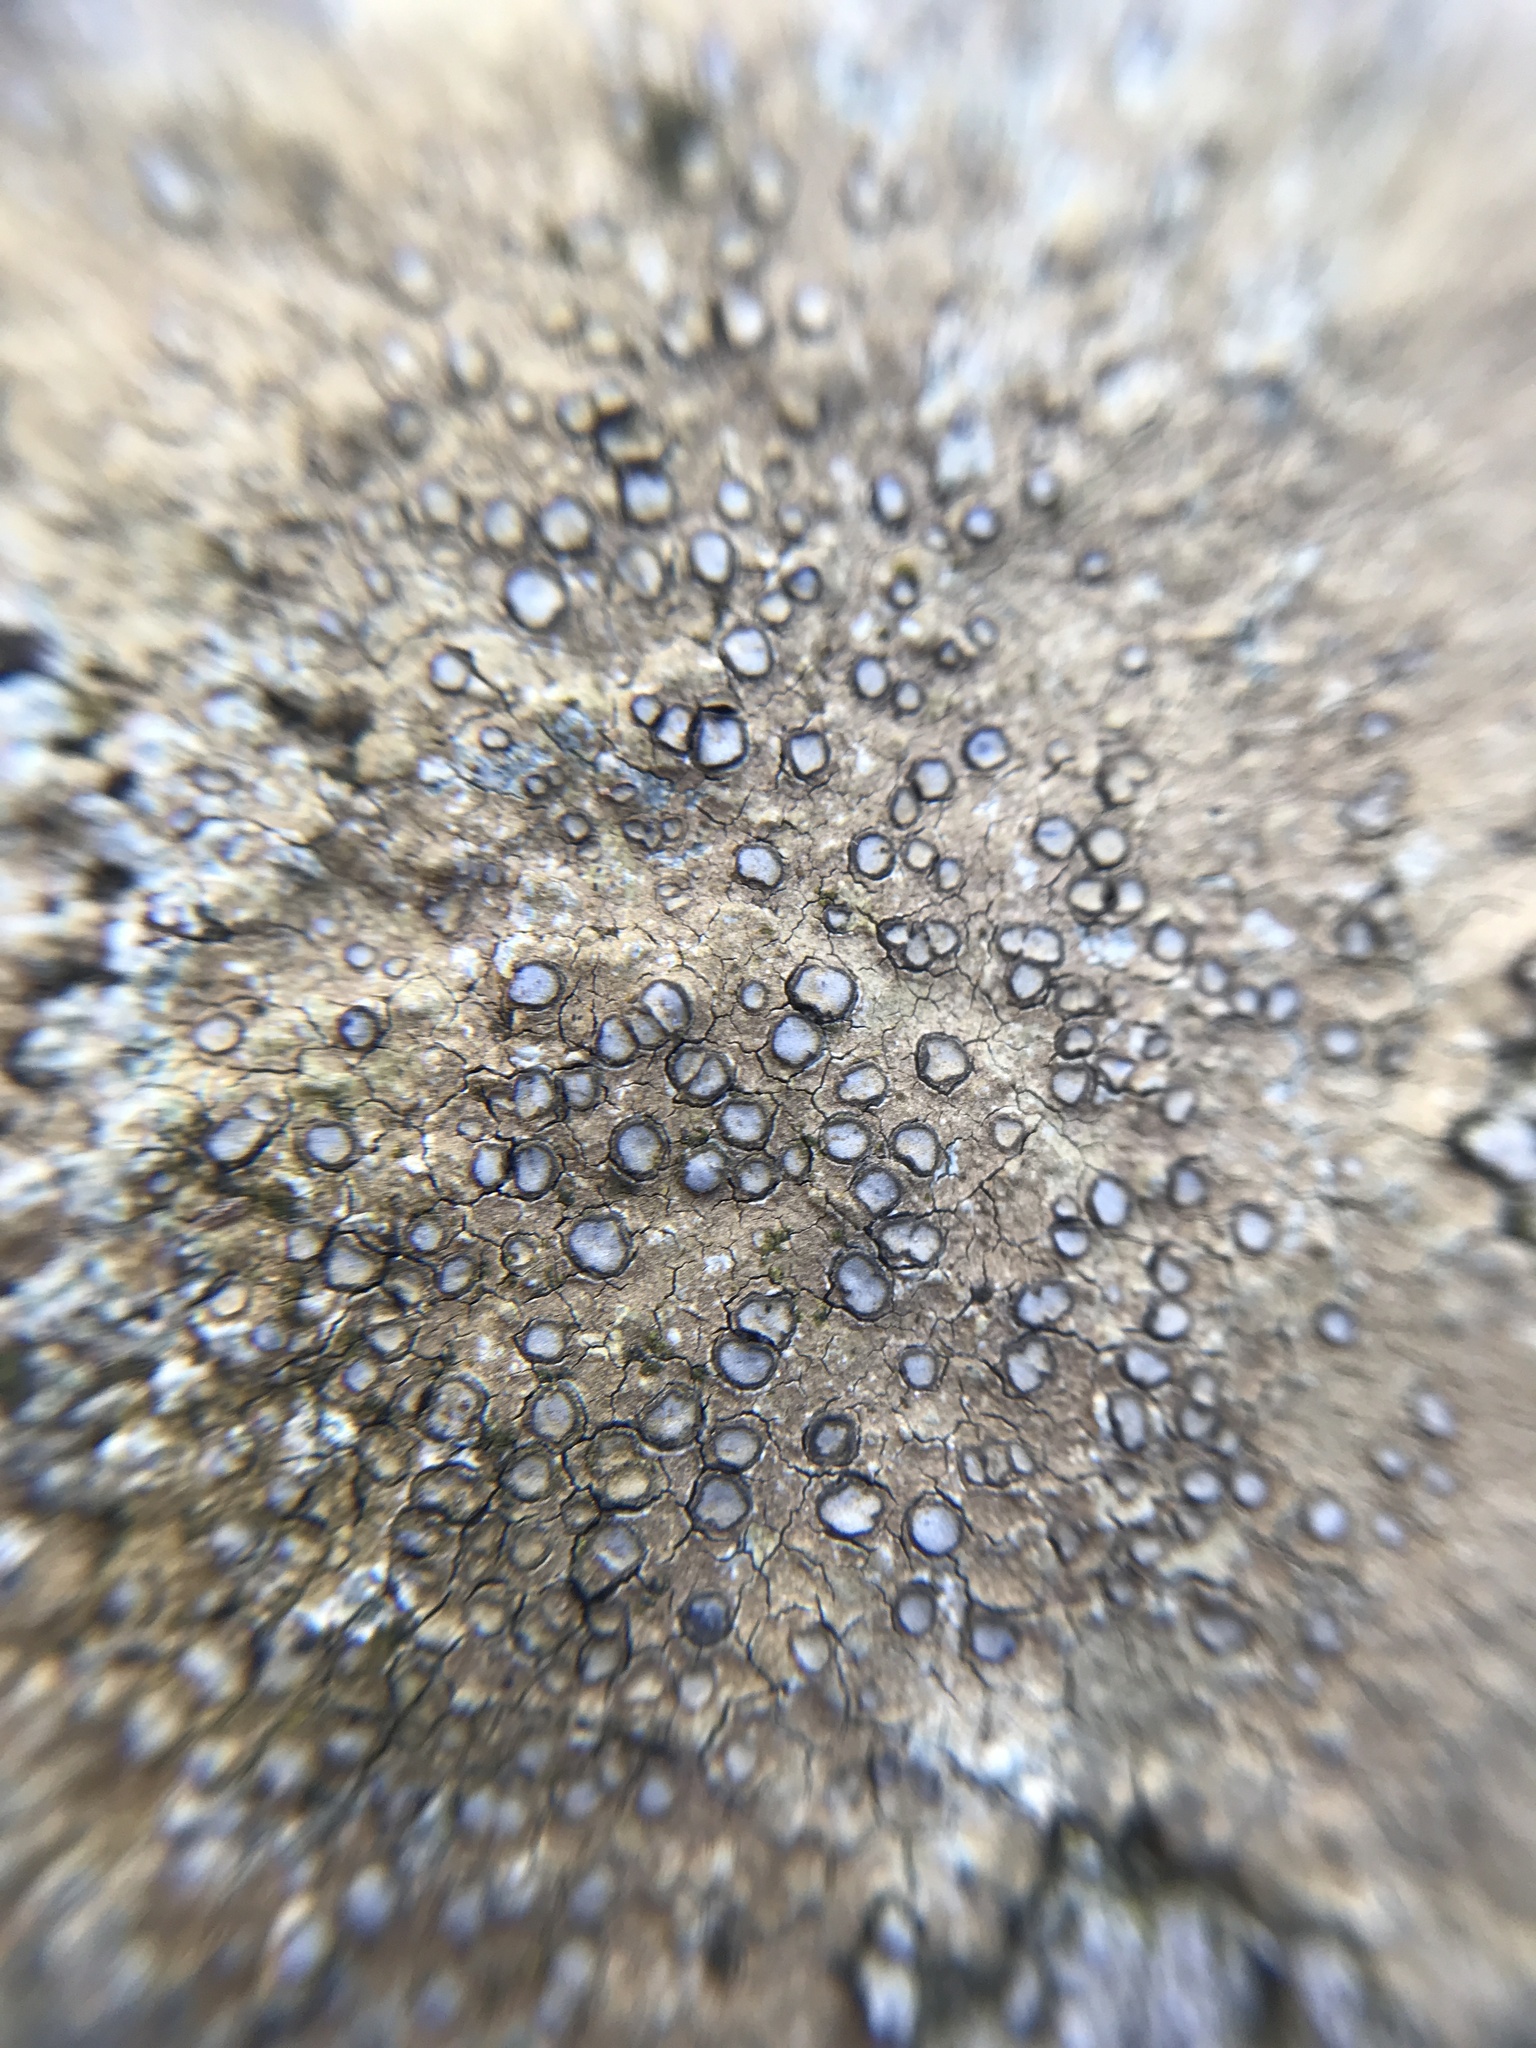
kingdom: Fungi
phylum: Ascomycota
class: Lecanoromycetes
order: Lecideales
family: Lecideaceae
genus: Porpidia
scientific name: Porpidia albocaerulescens
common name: Smokey-eyed boulder lichen
